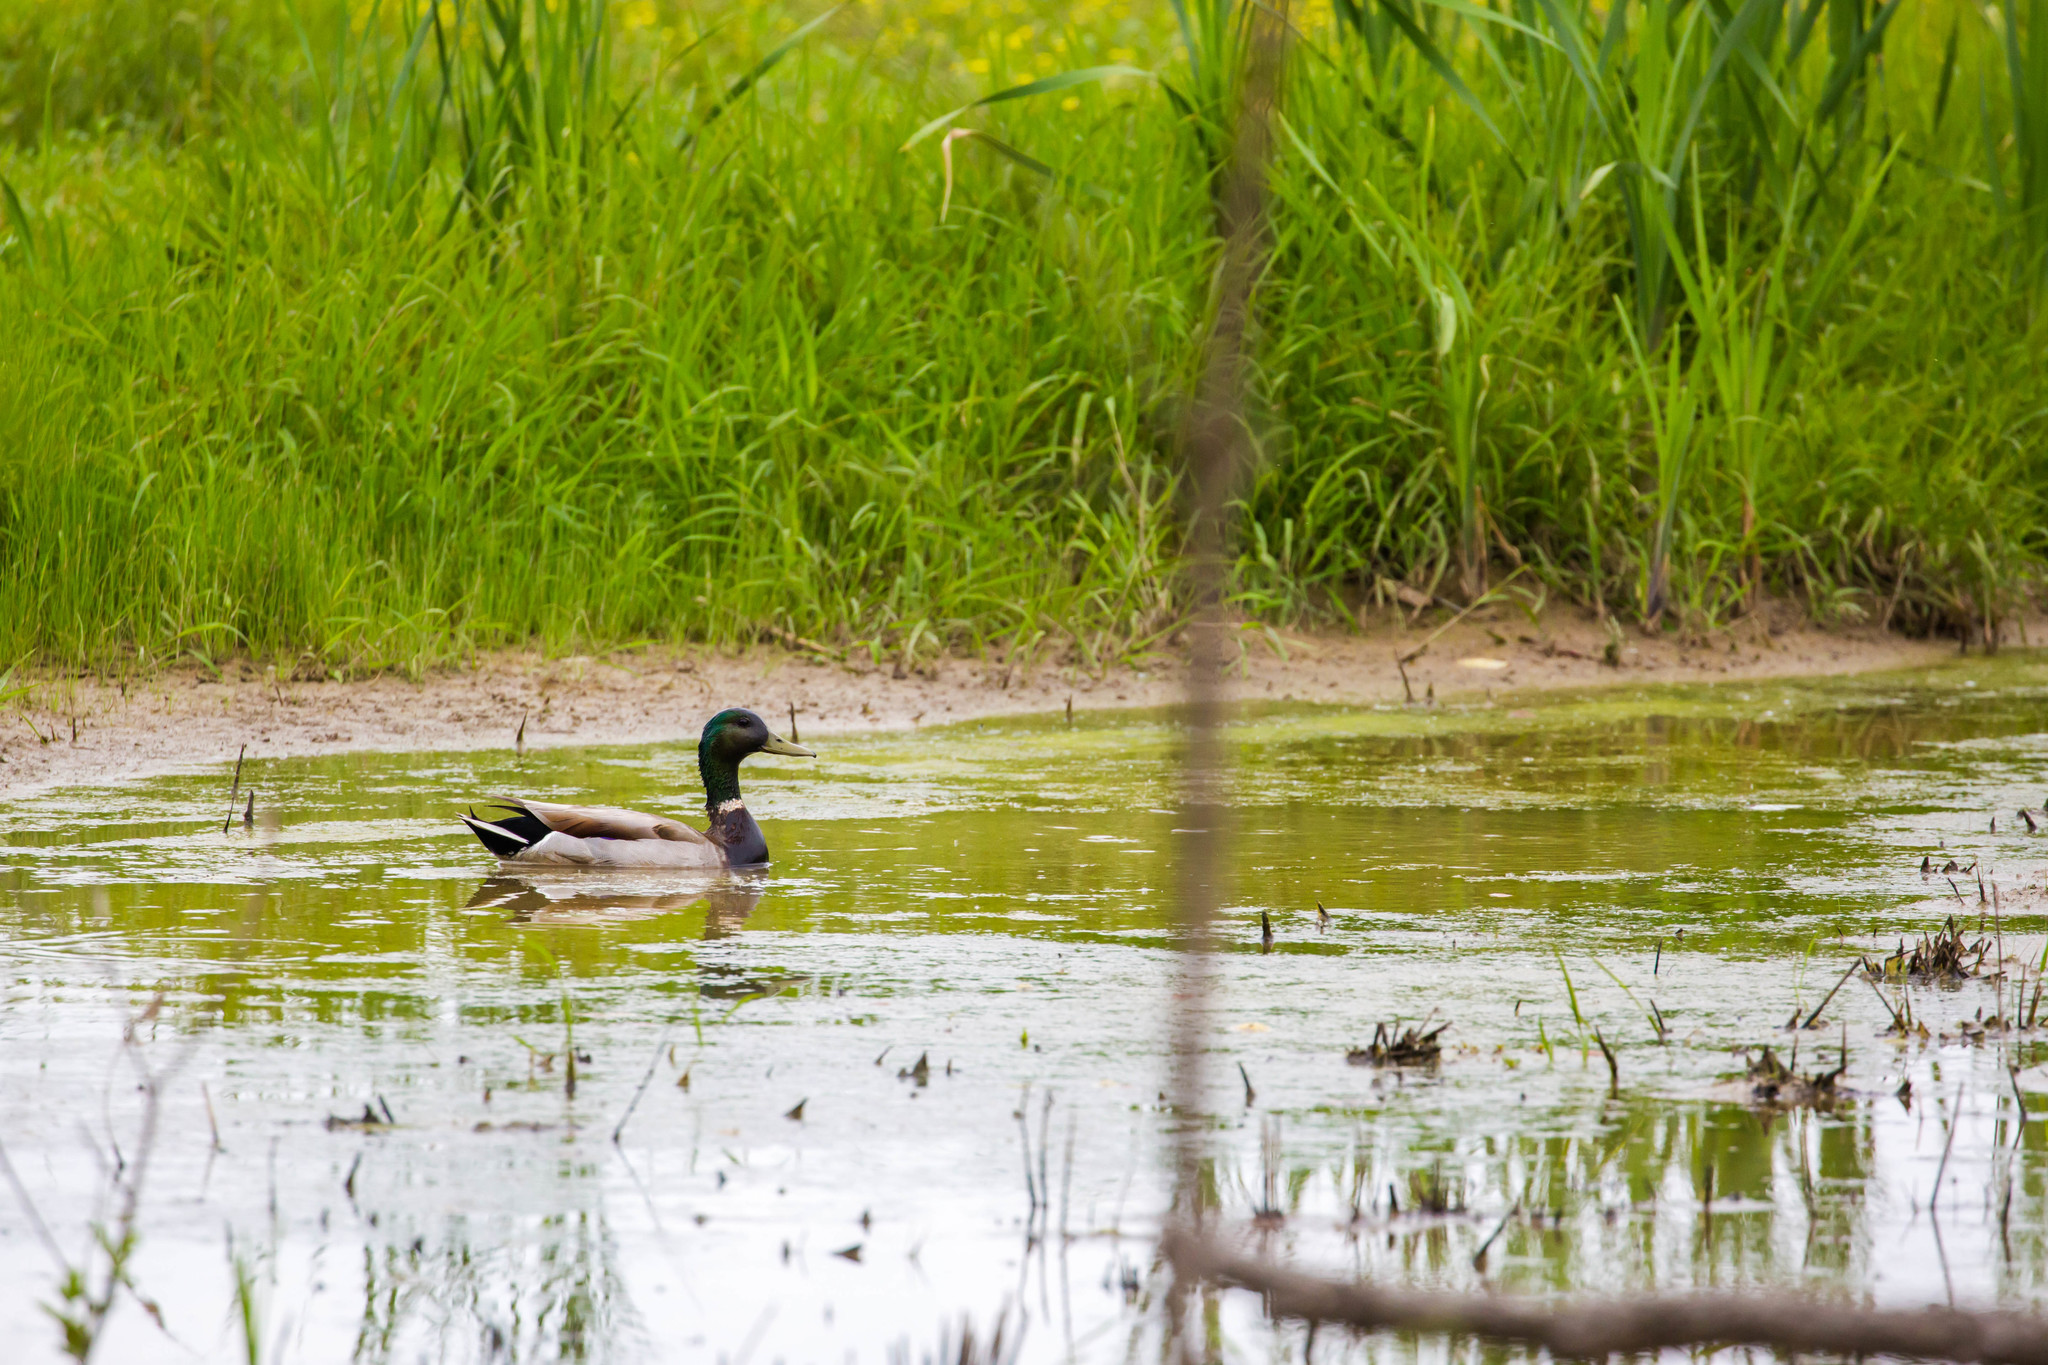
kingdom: Animalia
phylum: Chordata
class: Aves
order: Anseriformes
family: Anatidae
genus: Anas
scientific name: Anas platyrhynchos
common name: Mallard
